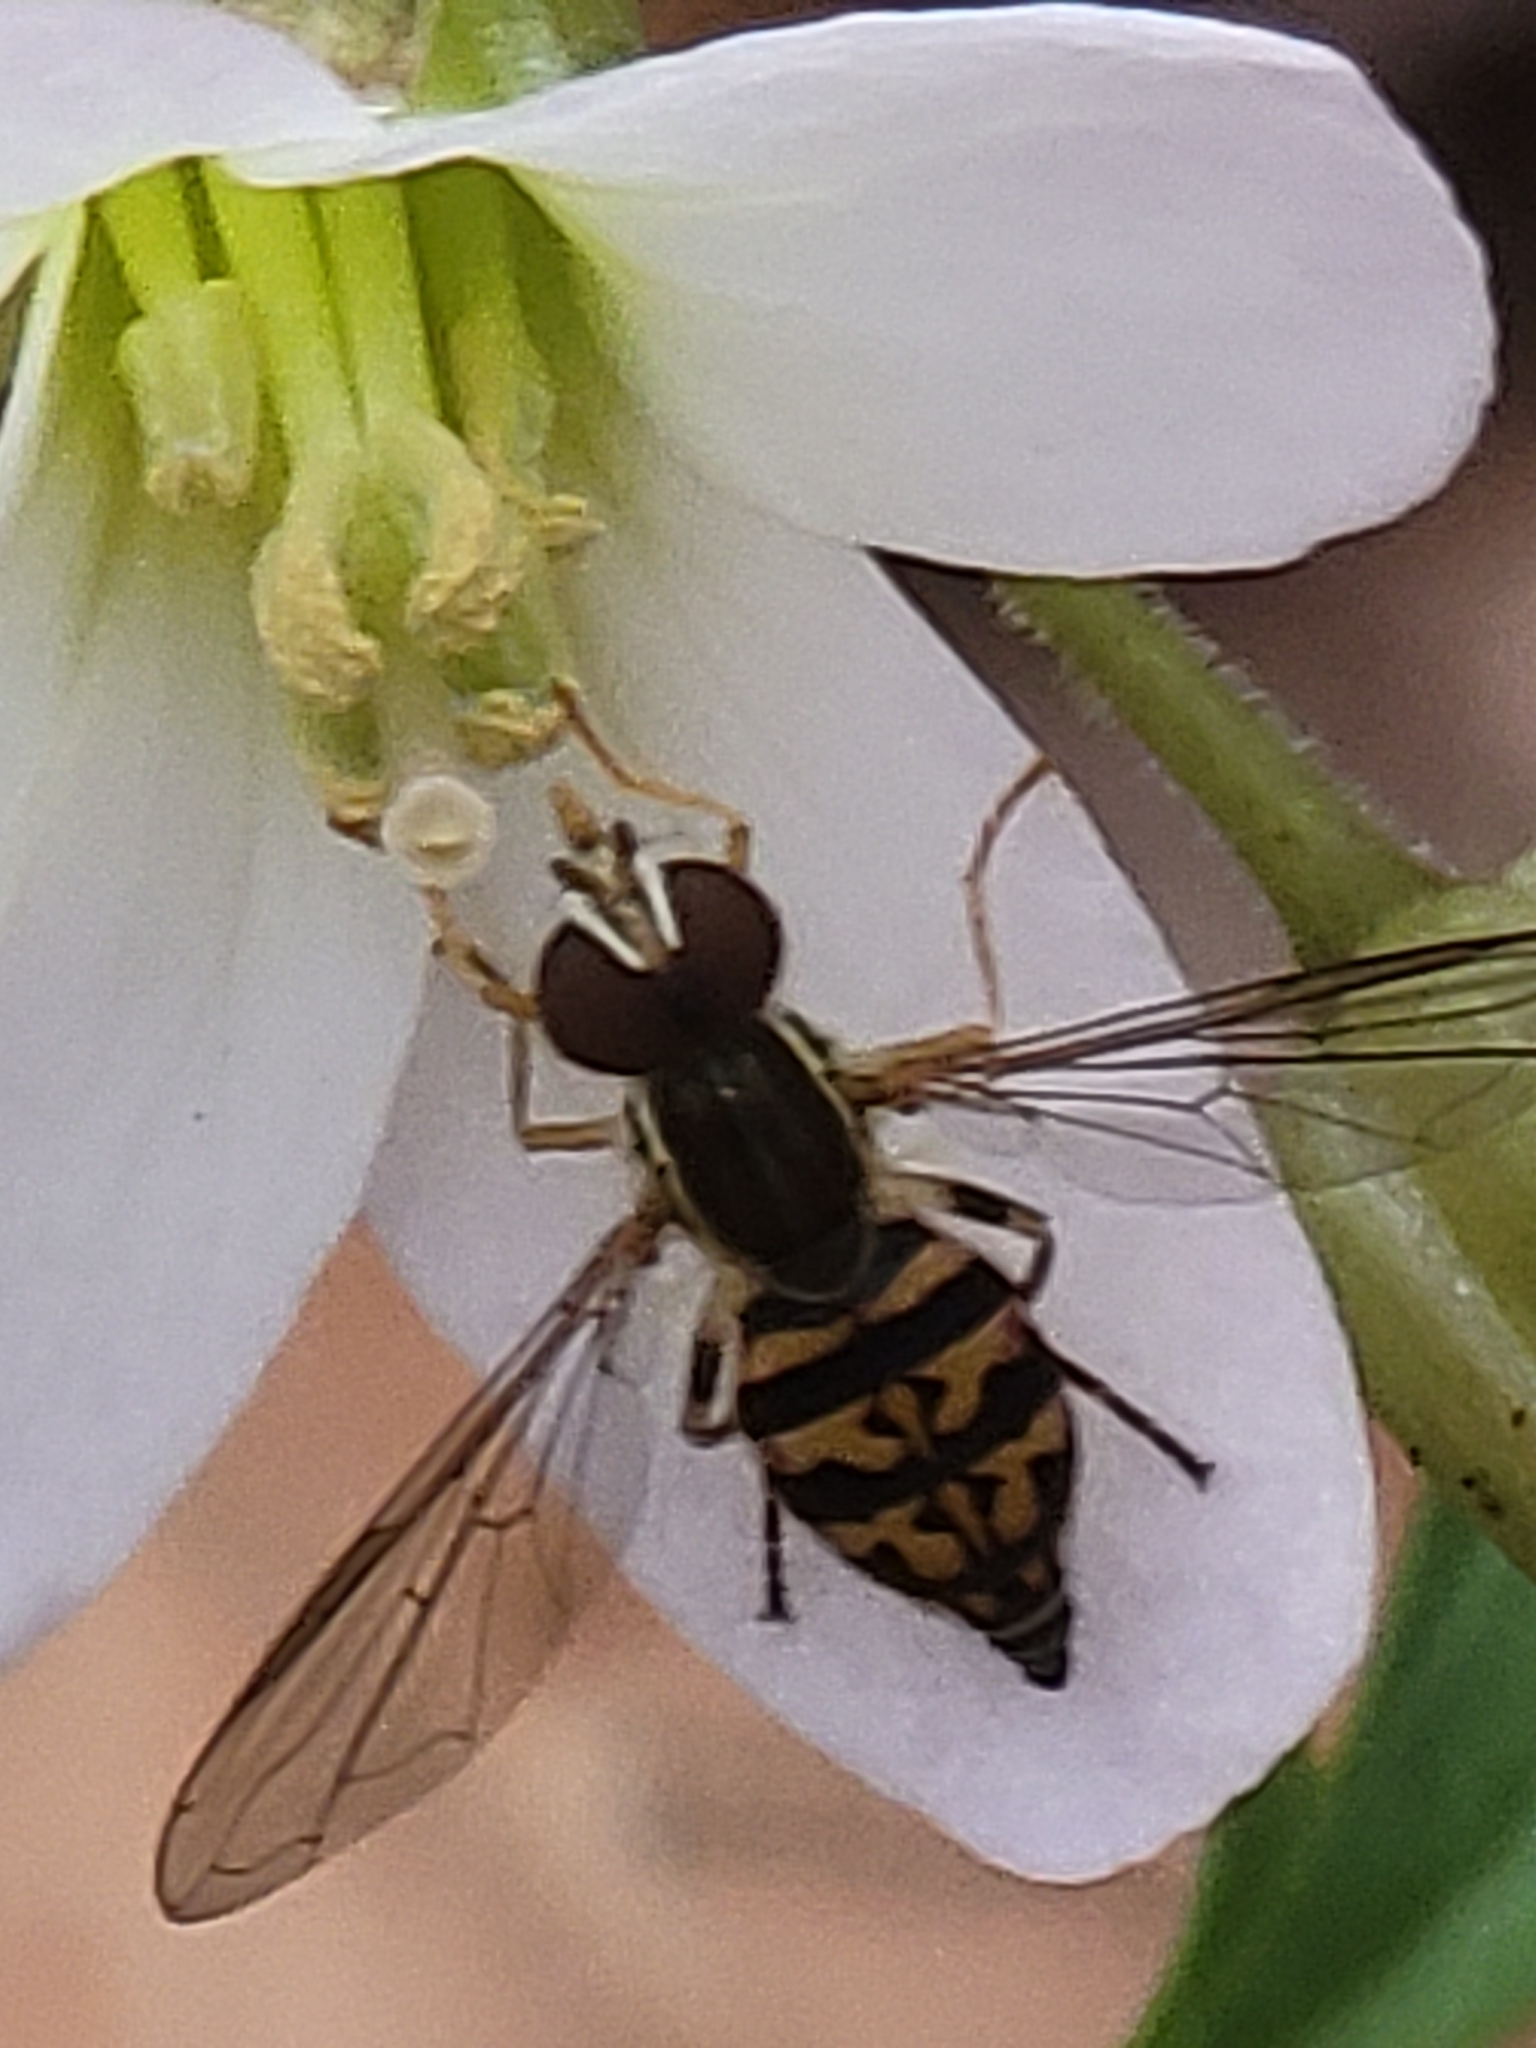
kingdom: Animalia
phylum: Arthropoda
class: Insecta
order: Diptera
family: Syrphidae
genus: Toxomerus
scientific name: Toxomerus geminatus
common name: Eastern calligrapher
